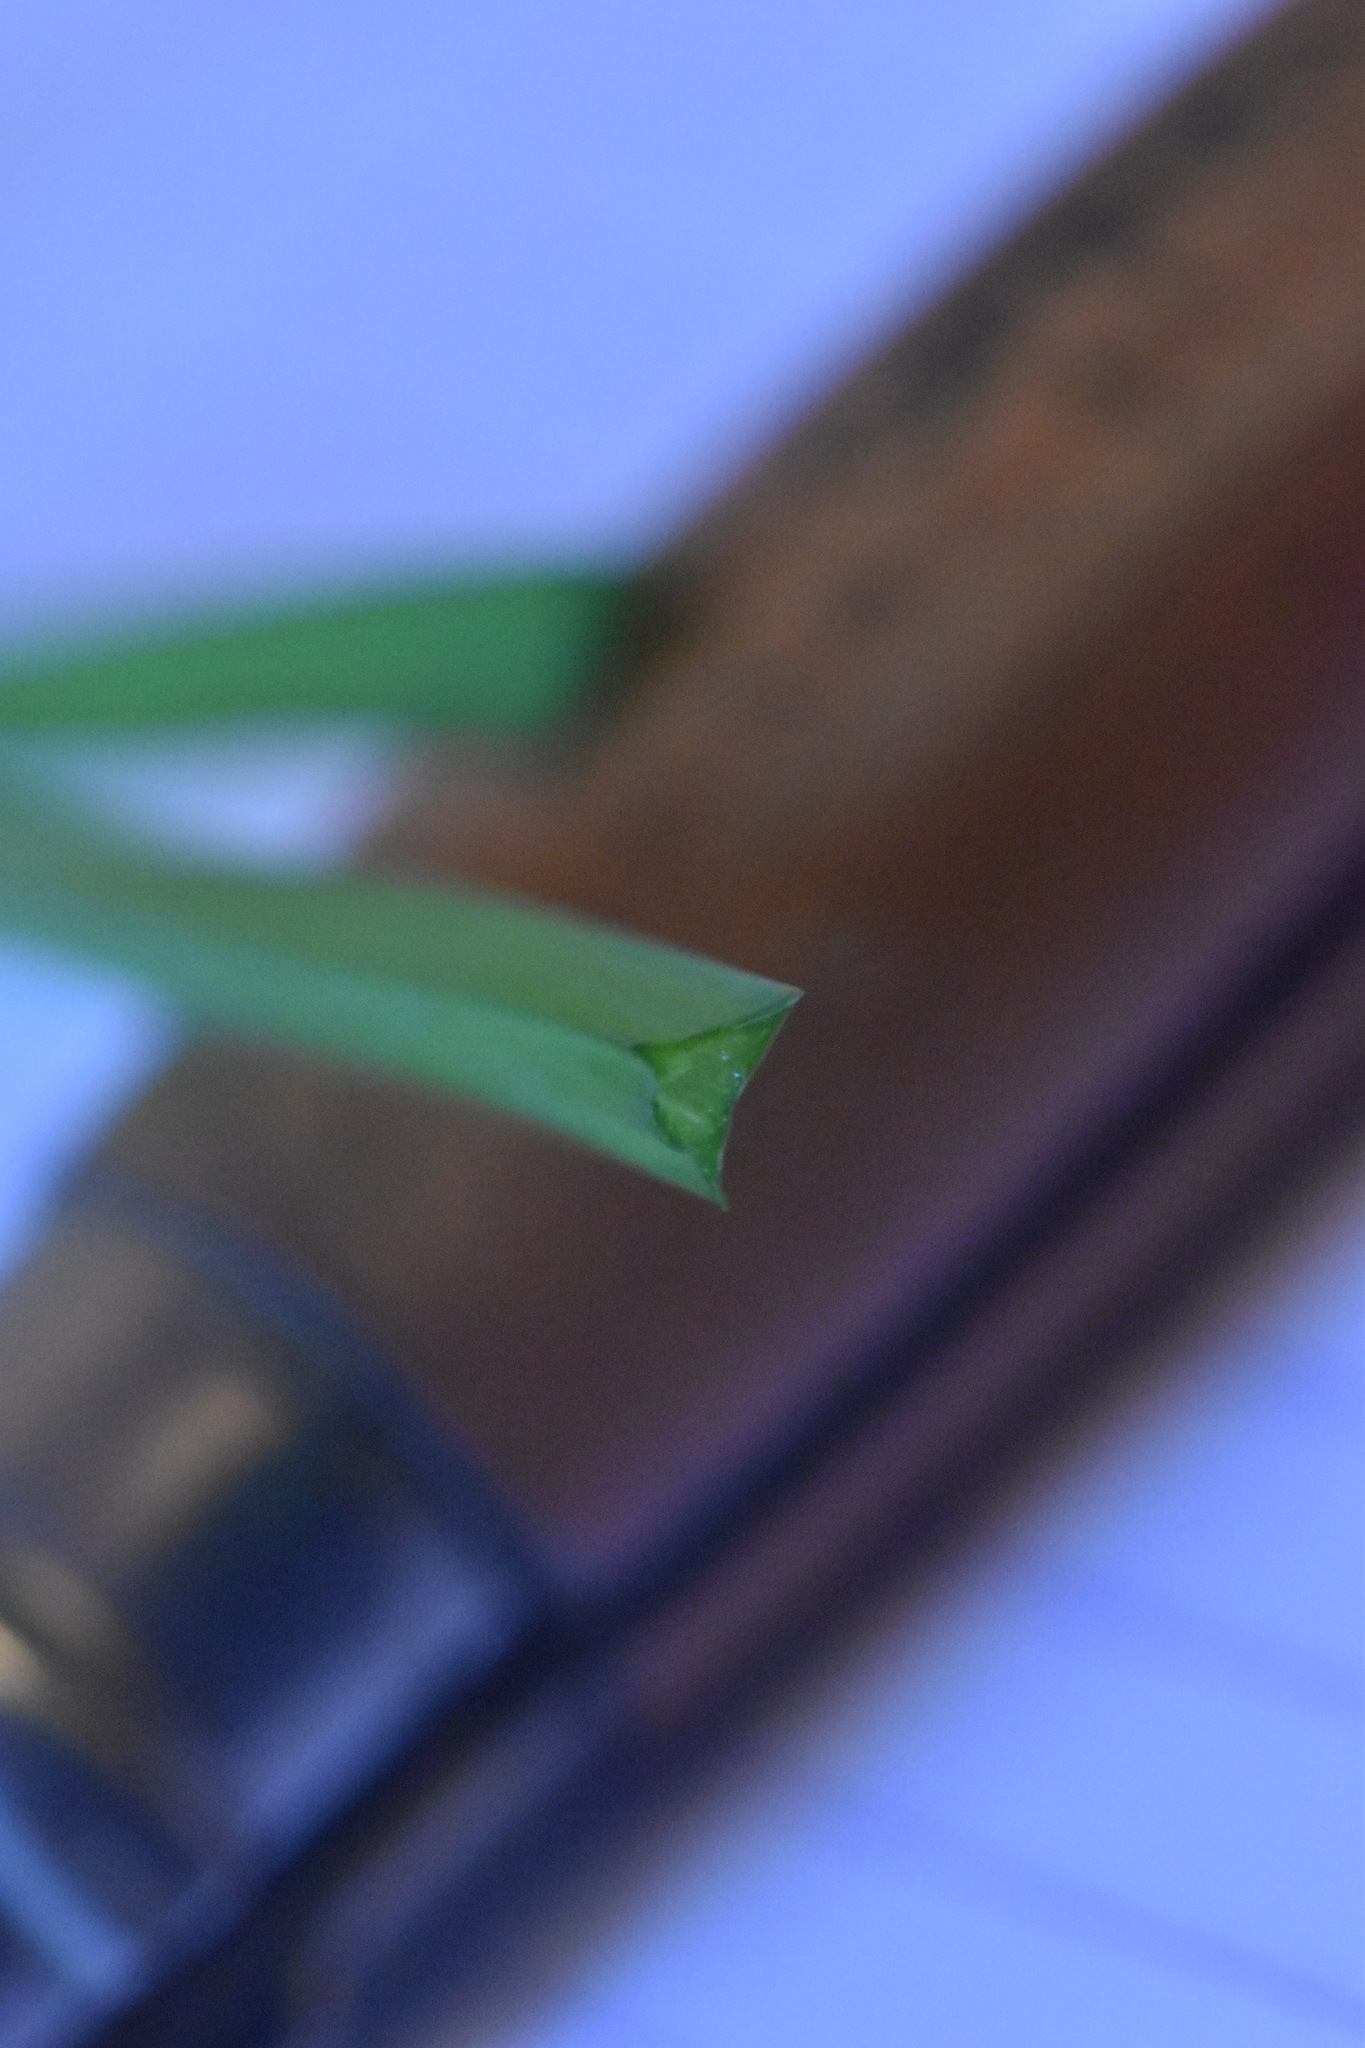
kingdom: Plantae
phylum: Tracheophyta
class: Liliopsida
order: Asparagales
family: Amaryllidaceae
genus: Allium
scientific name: Allium triquetrum
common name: Three-cornered garlic
